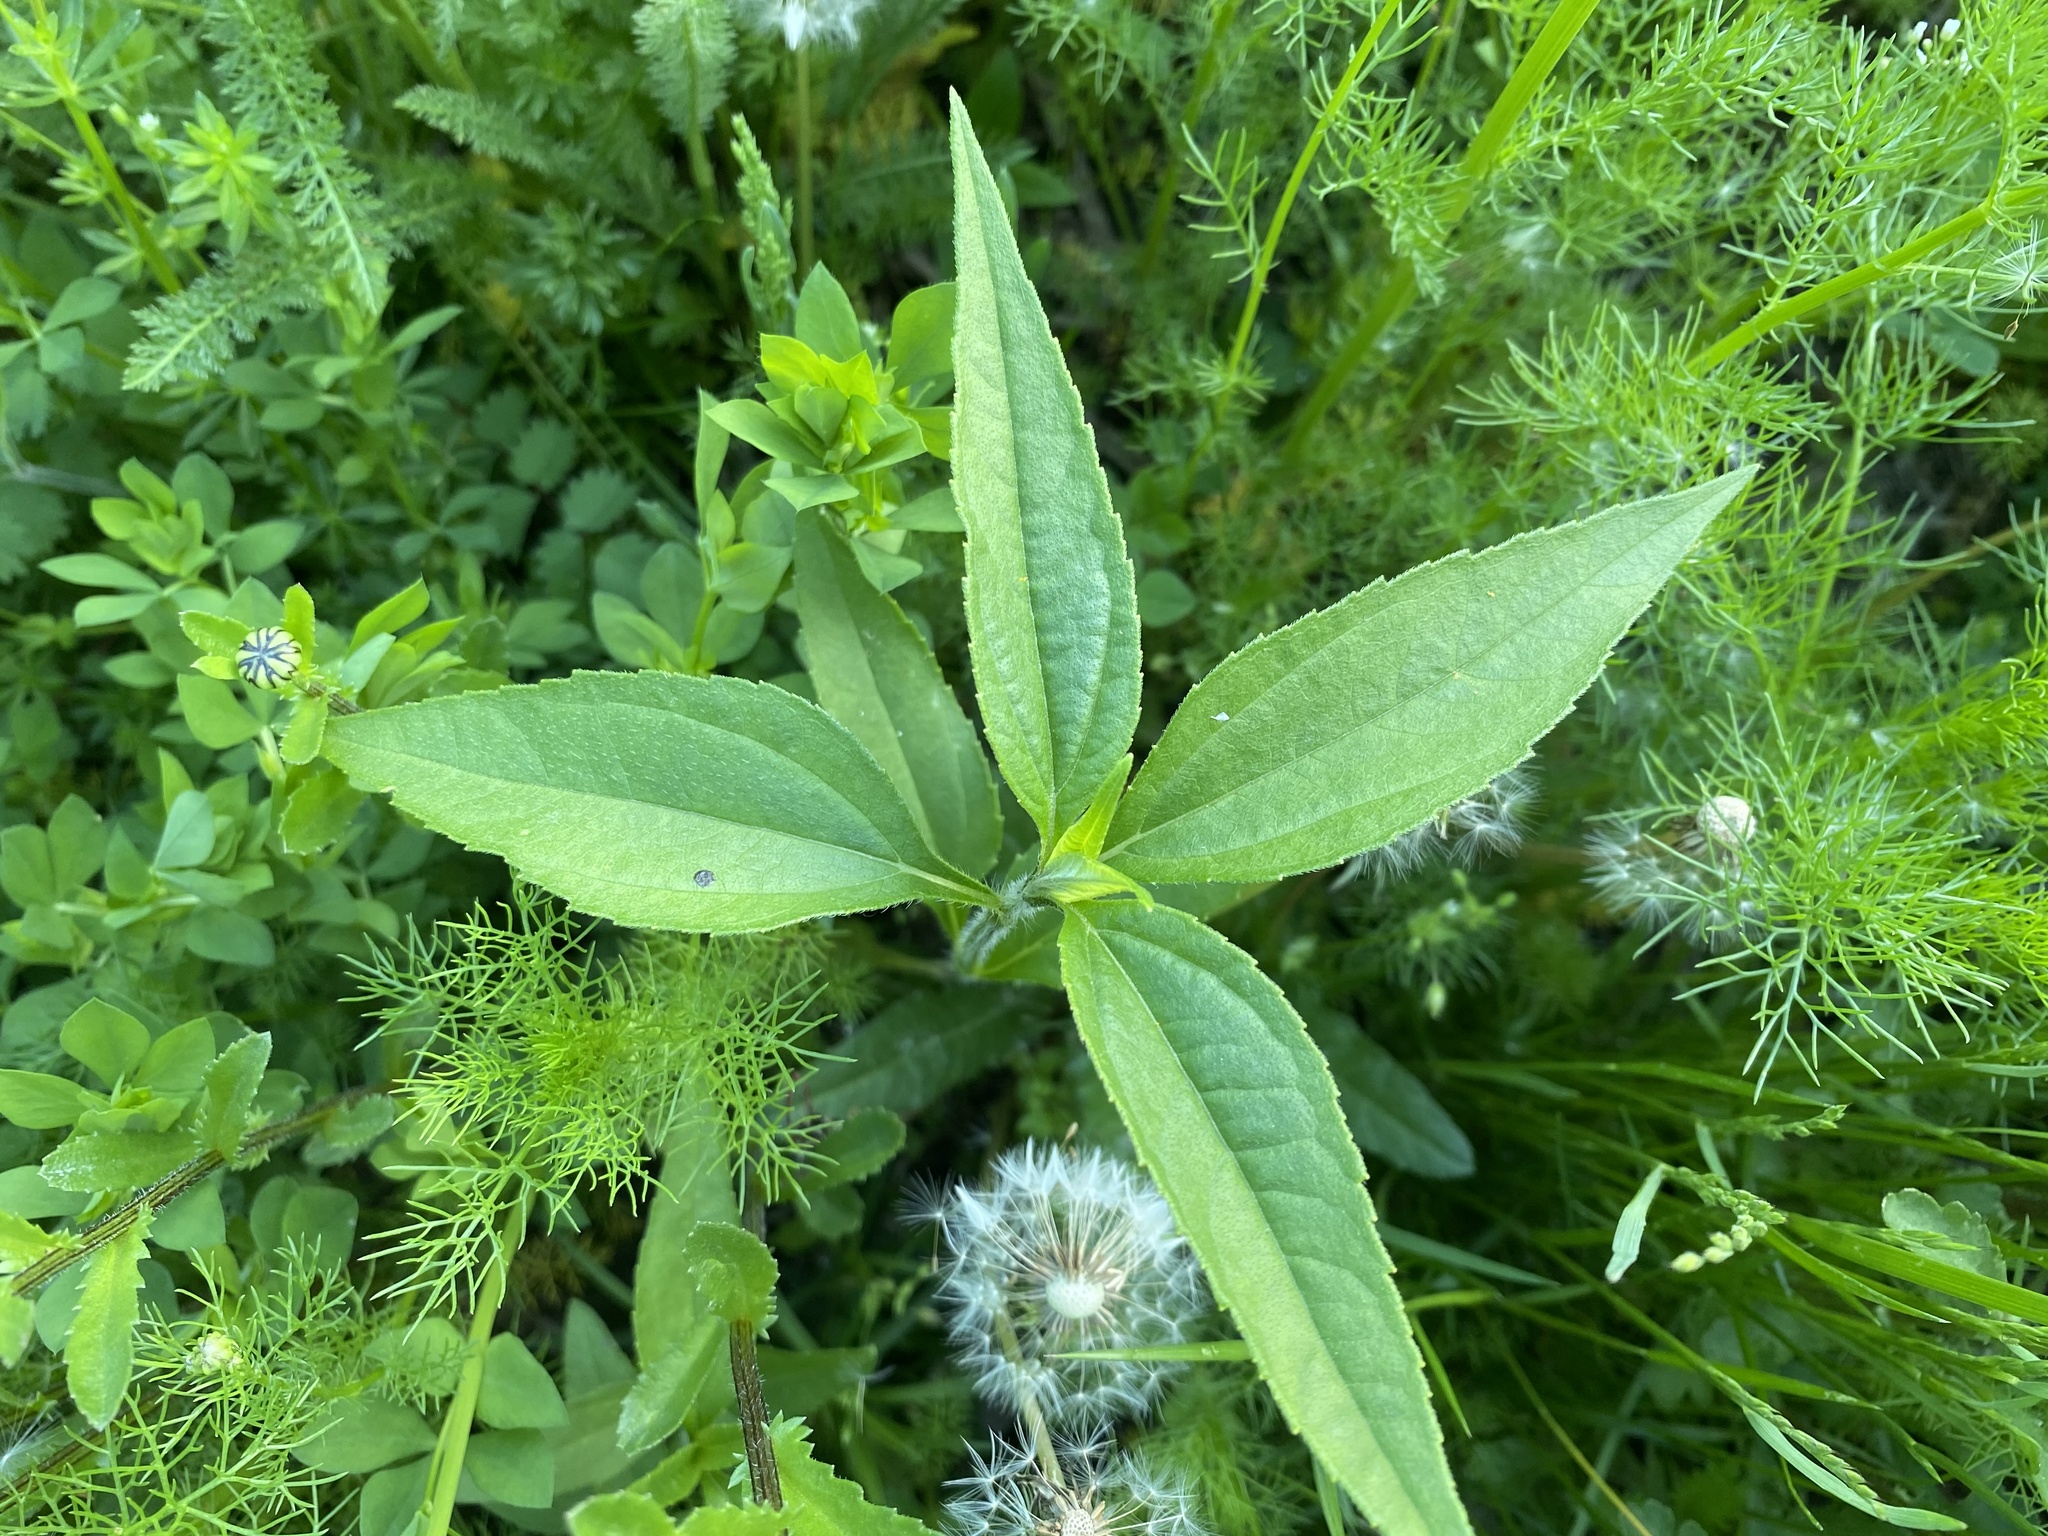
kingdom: Plantae
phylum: Tracheophyta
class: Magnoliopsida
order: Asterales
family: Asteraceae
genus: Echinacea
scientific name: Echinacea purpurea
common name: Broad-leaved purple coneflower
